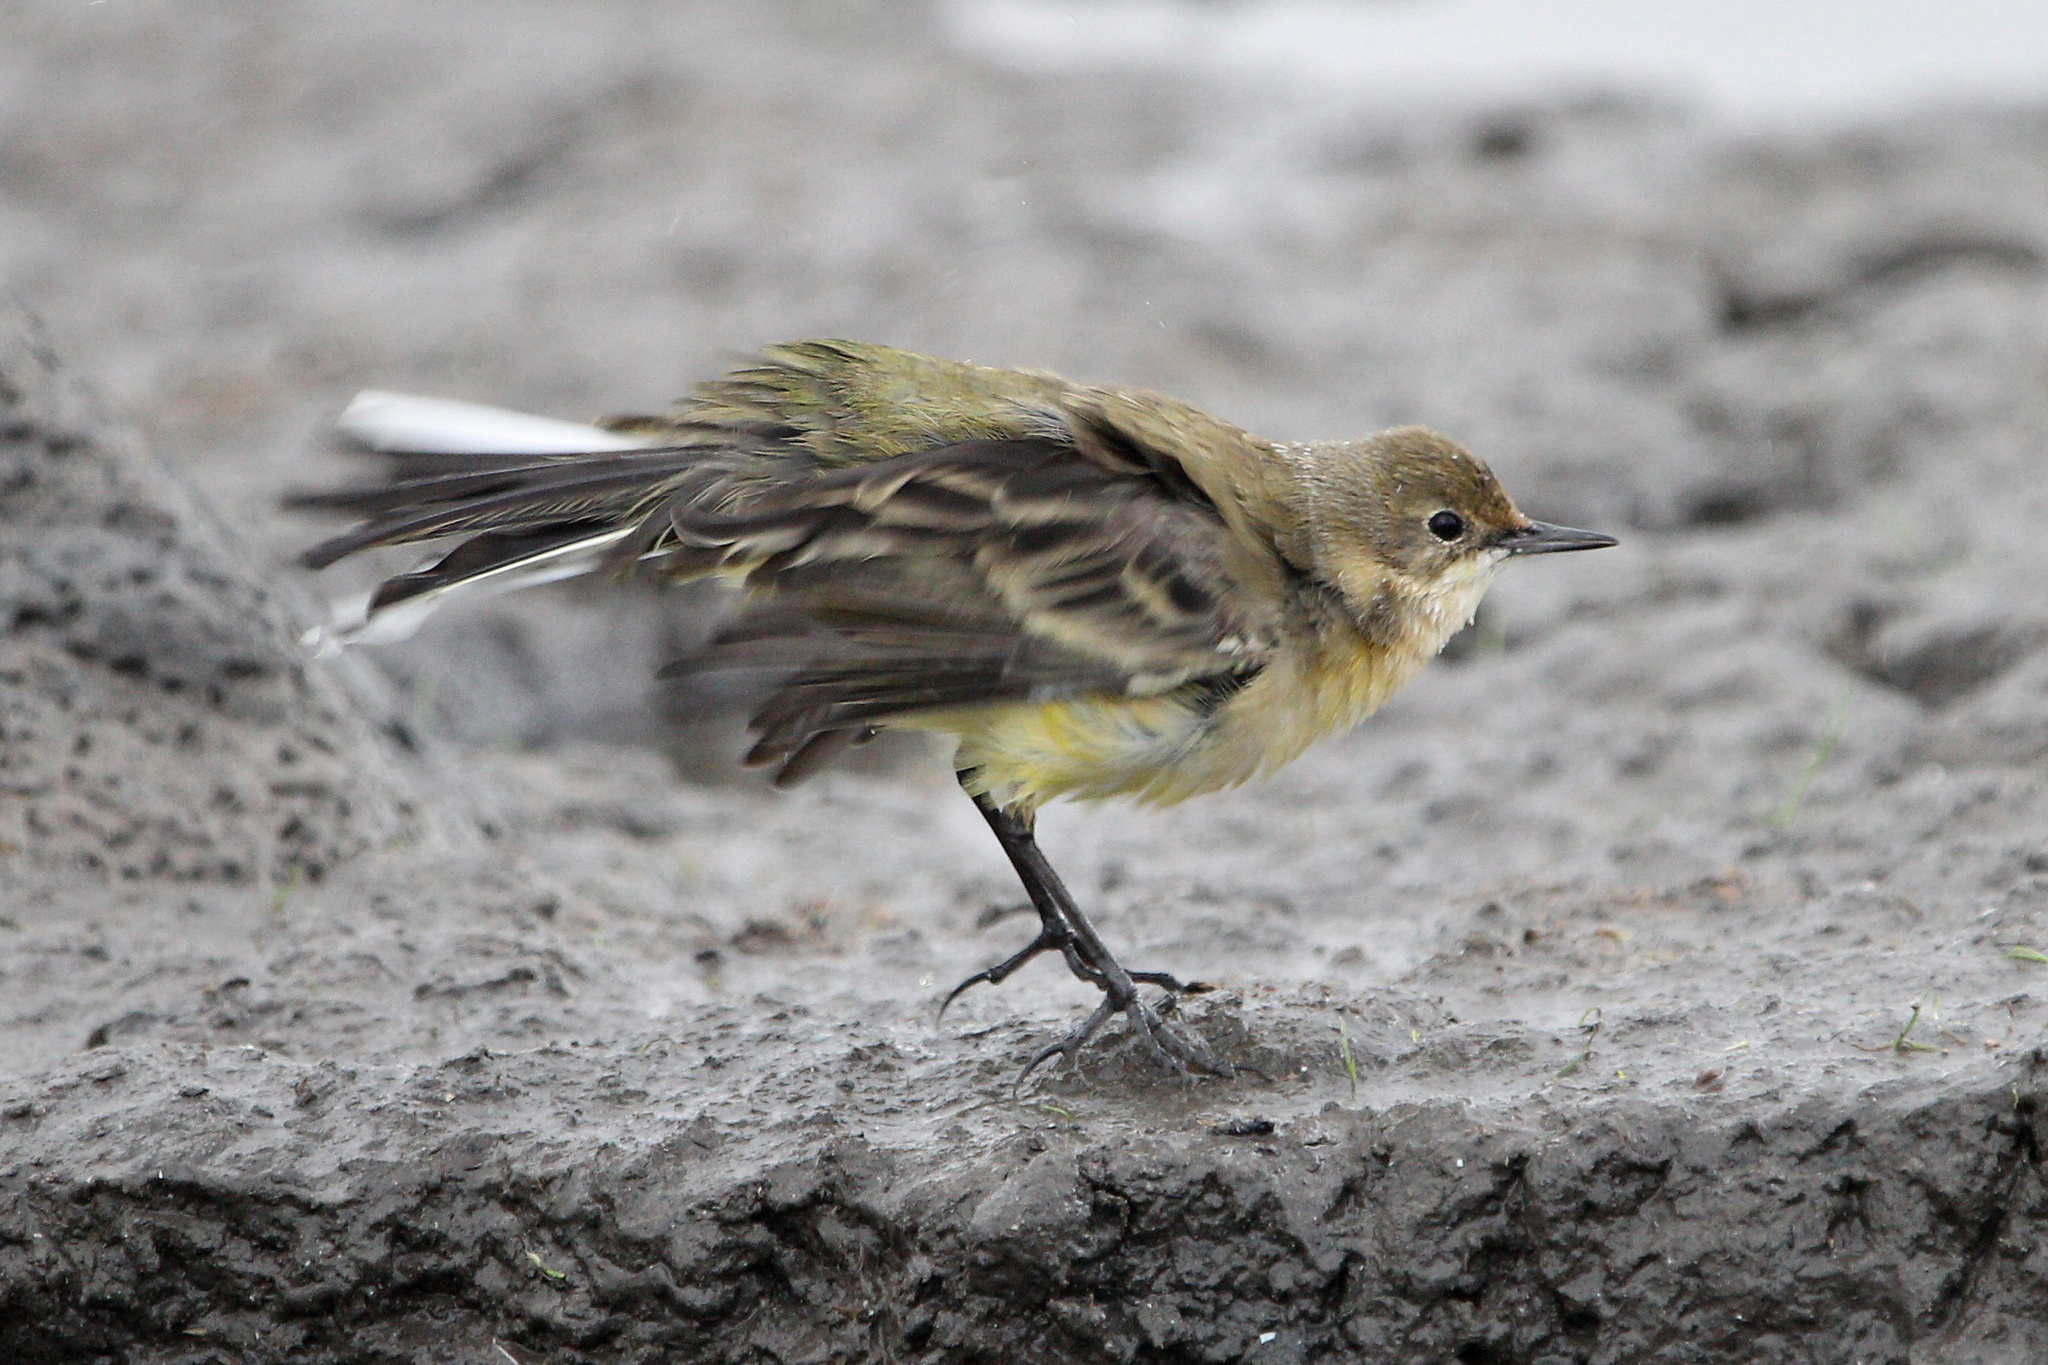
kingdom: Animalia
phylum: Chordata
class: Aves
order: Passeriformes
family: Motacillidae
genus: Motacilla
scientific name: Motacilla flava
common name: Western yellow wagtail
